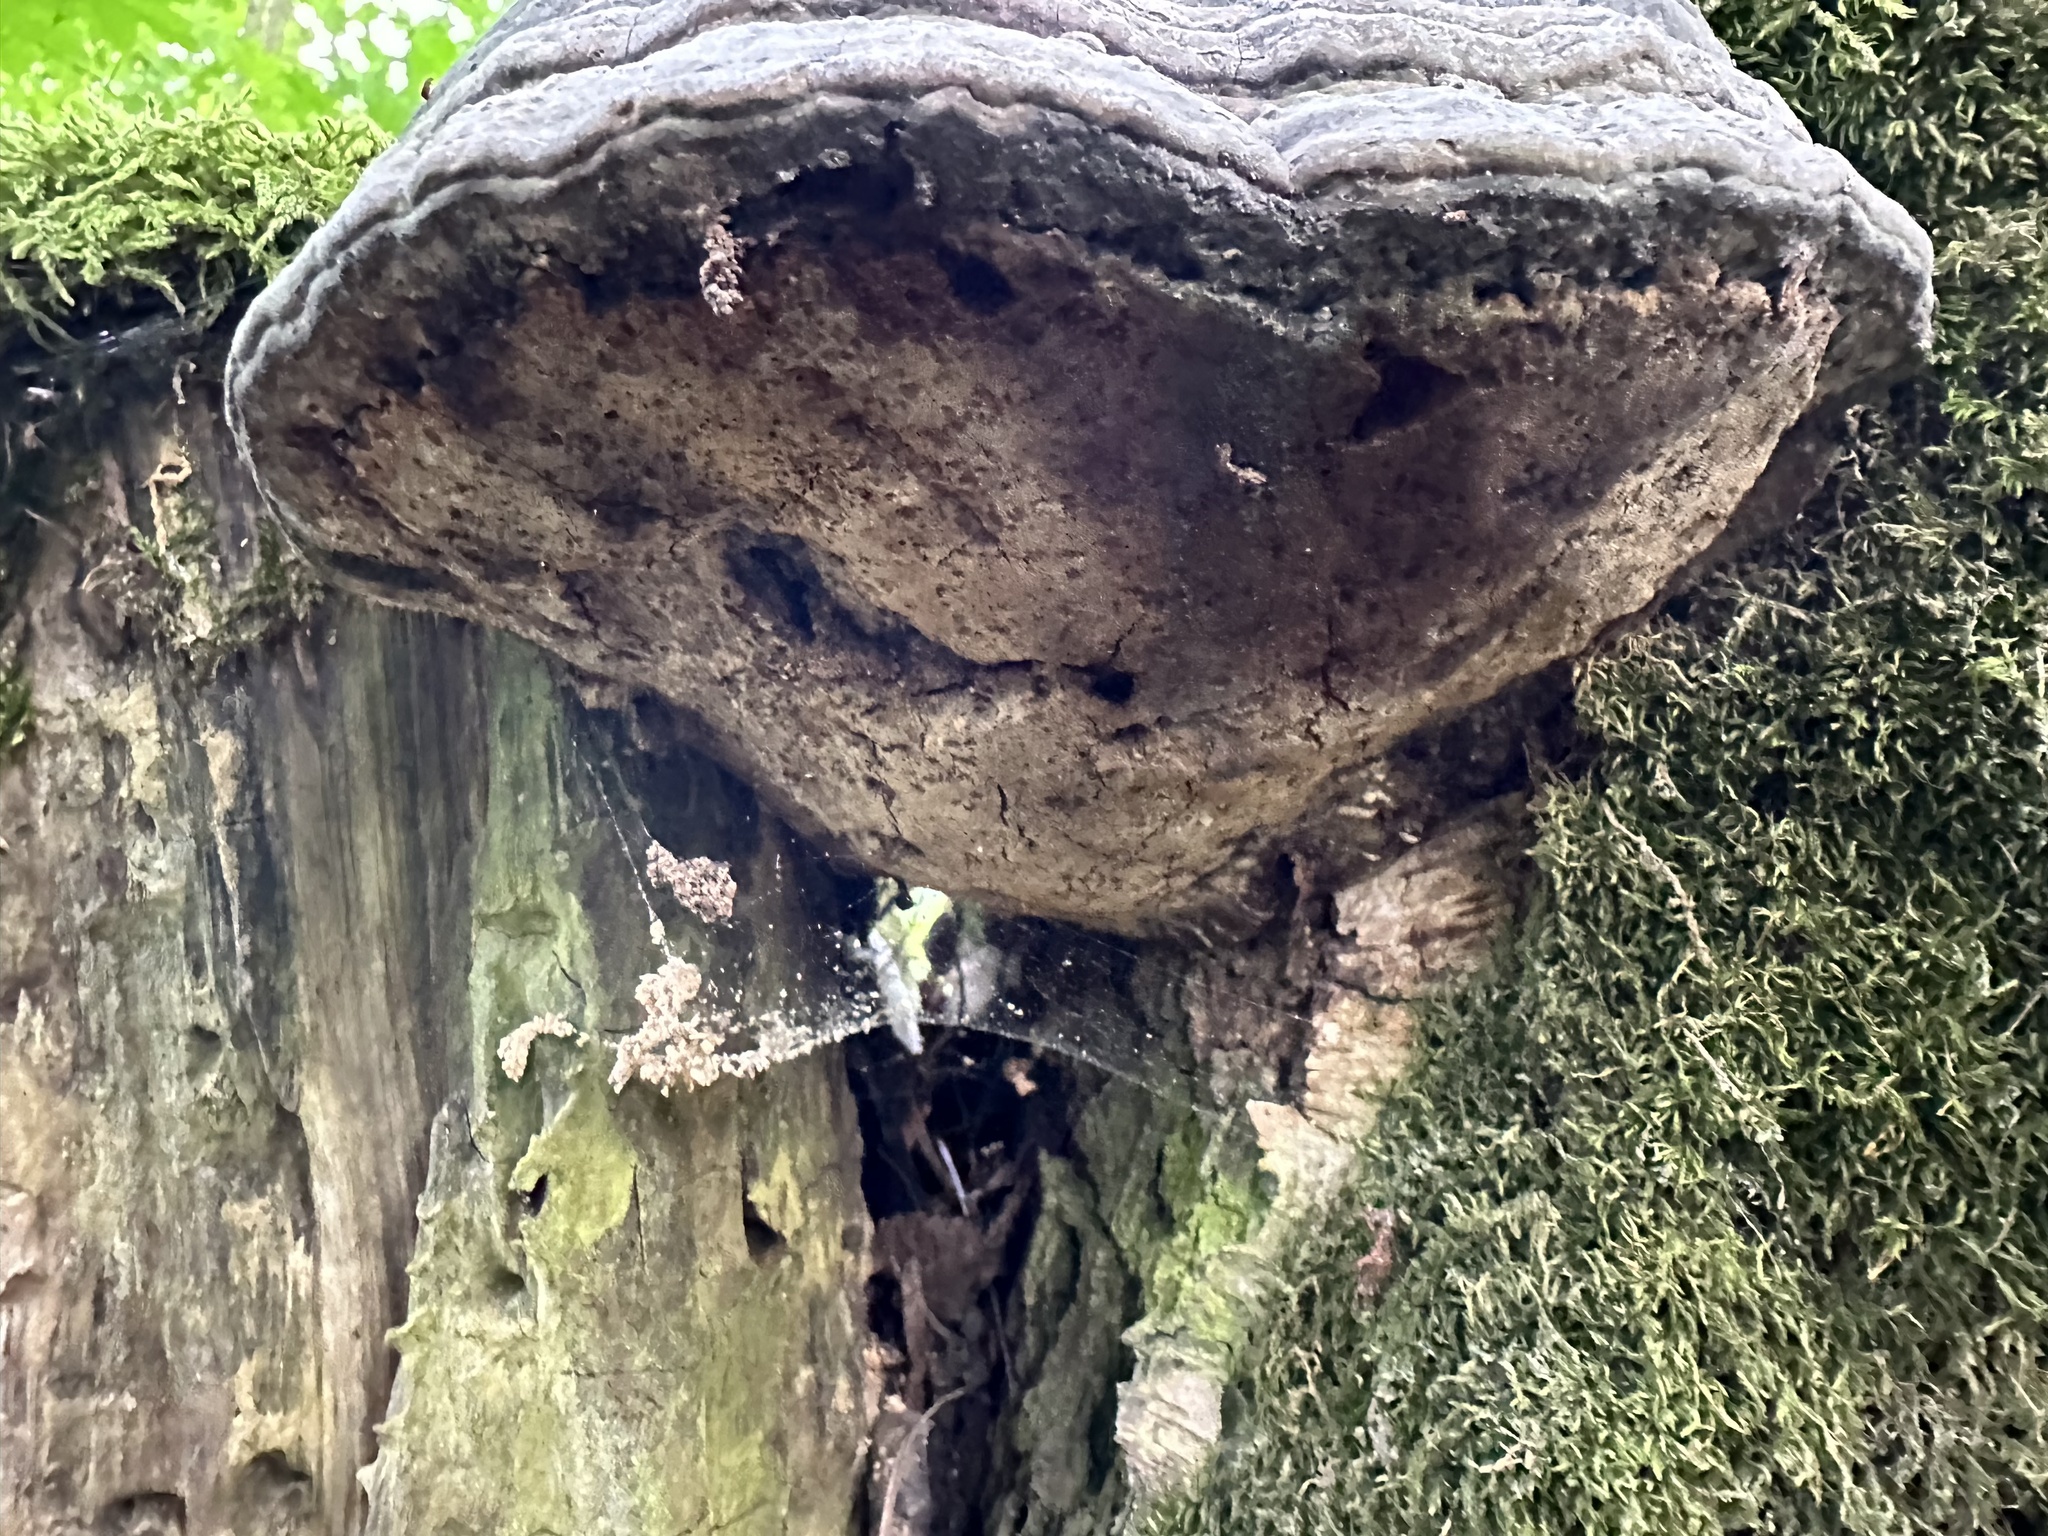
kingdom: Fungi
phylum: Basidiomycota
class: Agaricomycetes
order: Polyporales
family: Polyporaceae
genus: Fomes
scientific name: Fomes fomentarius
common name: Hoof fungus
